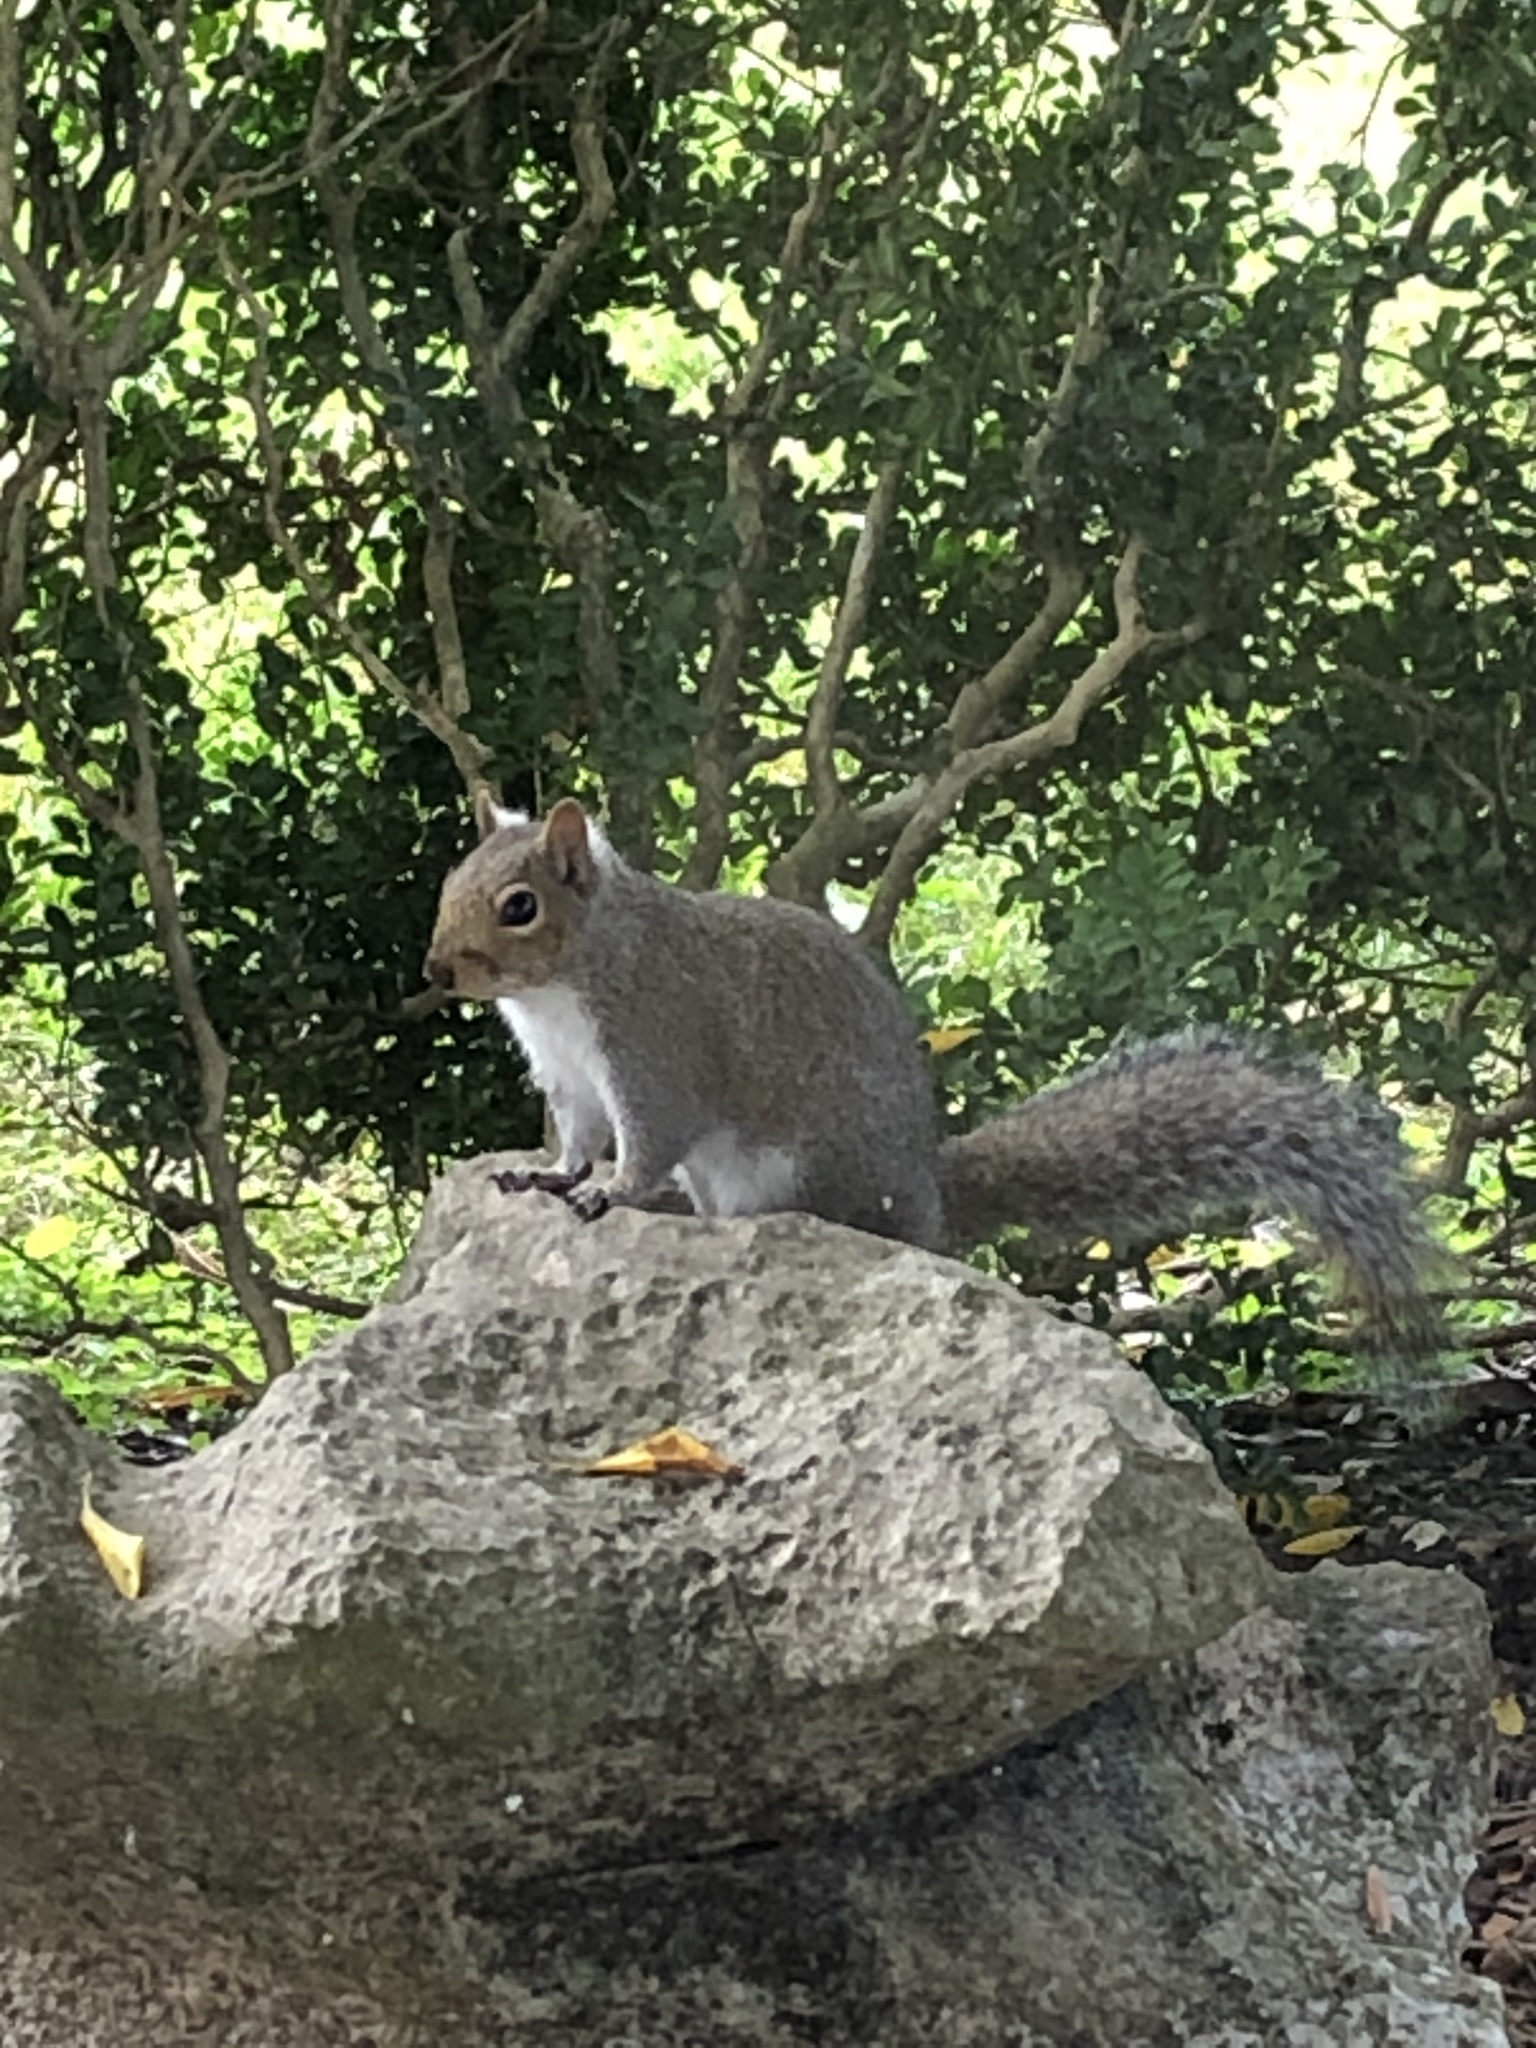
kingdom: Animalia
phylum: Chordata
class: Mammalia
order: Rodentia
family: Sciuridae
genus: Sciurus
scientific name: Sciurus carolinensis
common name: Eastern gray squirrel
